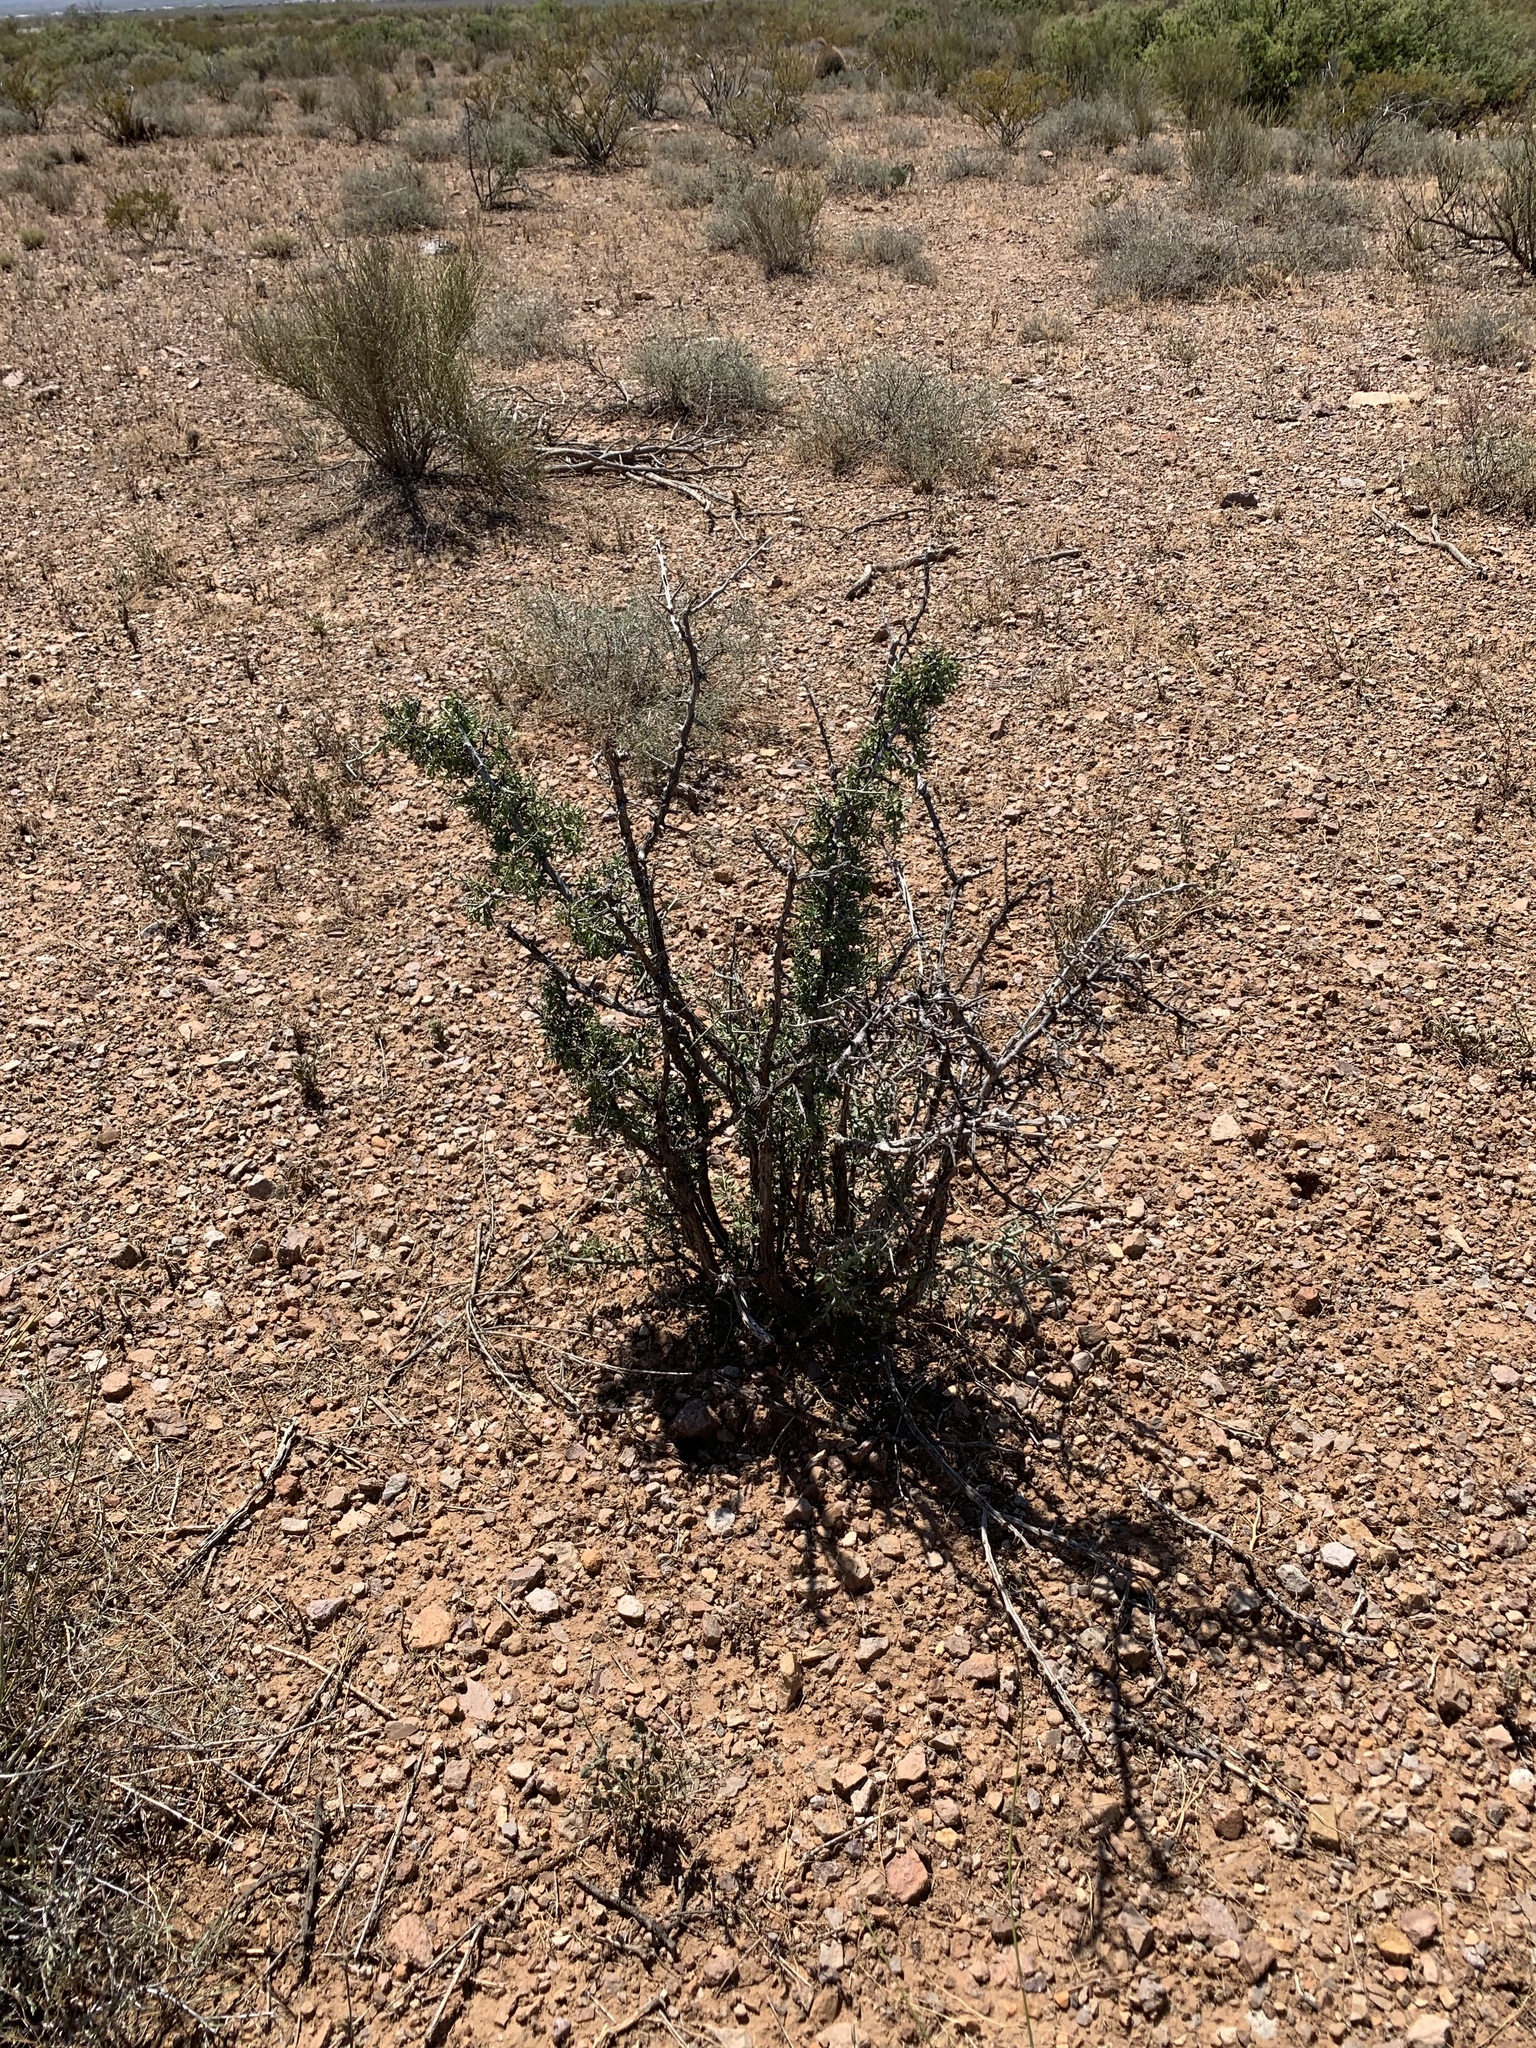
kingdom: Plantae
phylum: Tracheophyta
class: Magnoliopsida
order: Rosales
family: Rhamnaceae
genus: Sarcomphalus
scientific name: Sarcomphalus obtusifolius
